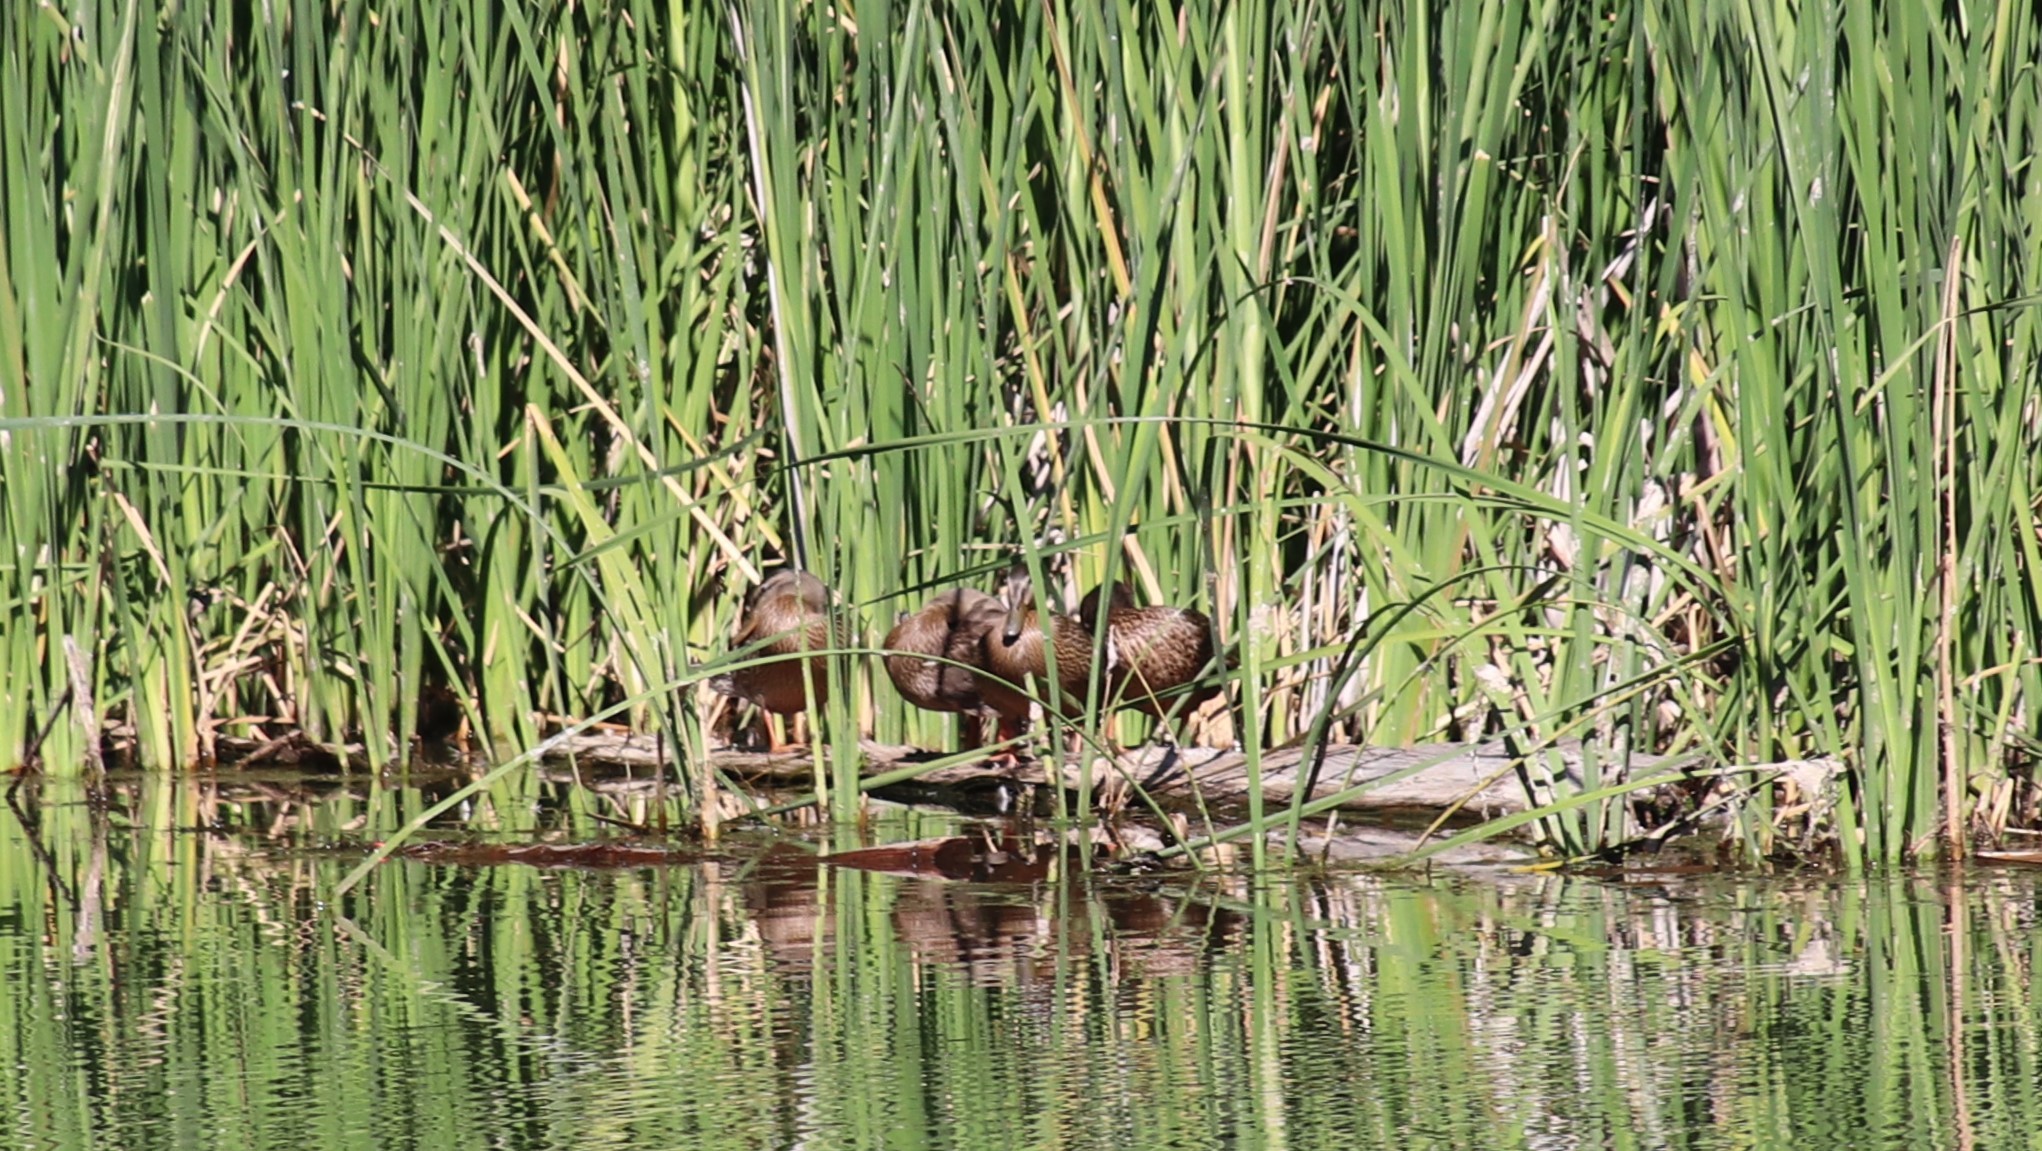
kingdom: Animalia
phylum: Chordata
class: Aves
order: Anseriformes
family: Anatidae
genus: Anas
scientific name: Anas platyrhynchos
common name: Mallard
